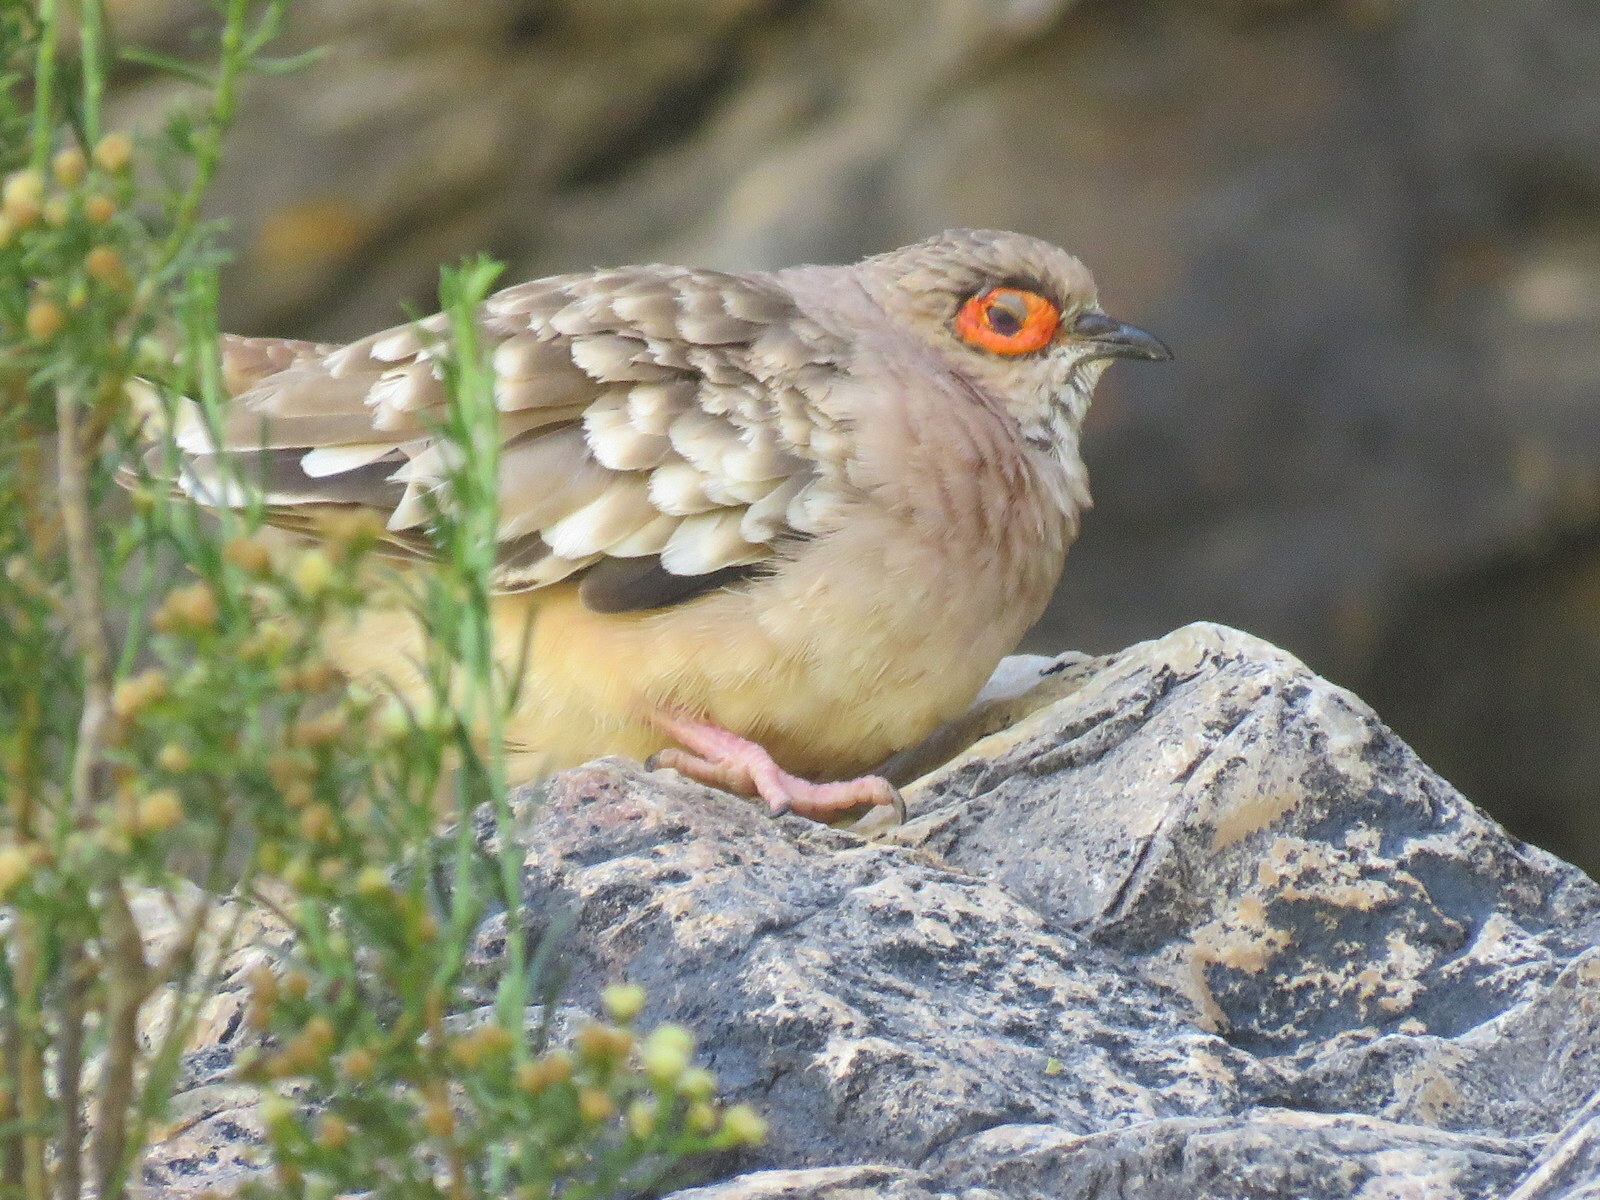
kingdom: Animalia
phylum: Chordata
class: Aves
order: Columbiformes
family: Columbidae
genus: Metriopelia
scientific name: Metriopelia ceciliae
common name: Bare-faced ground dove
